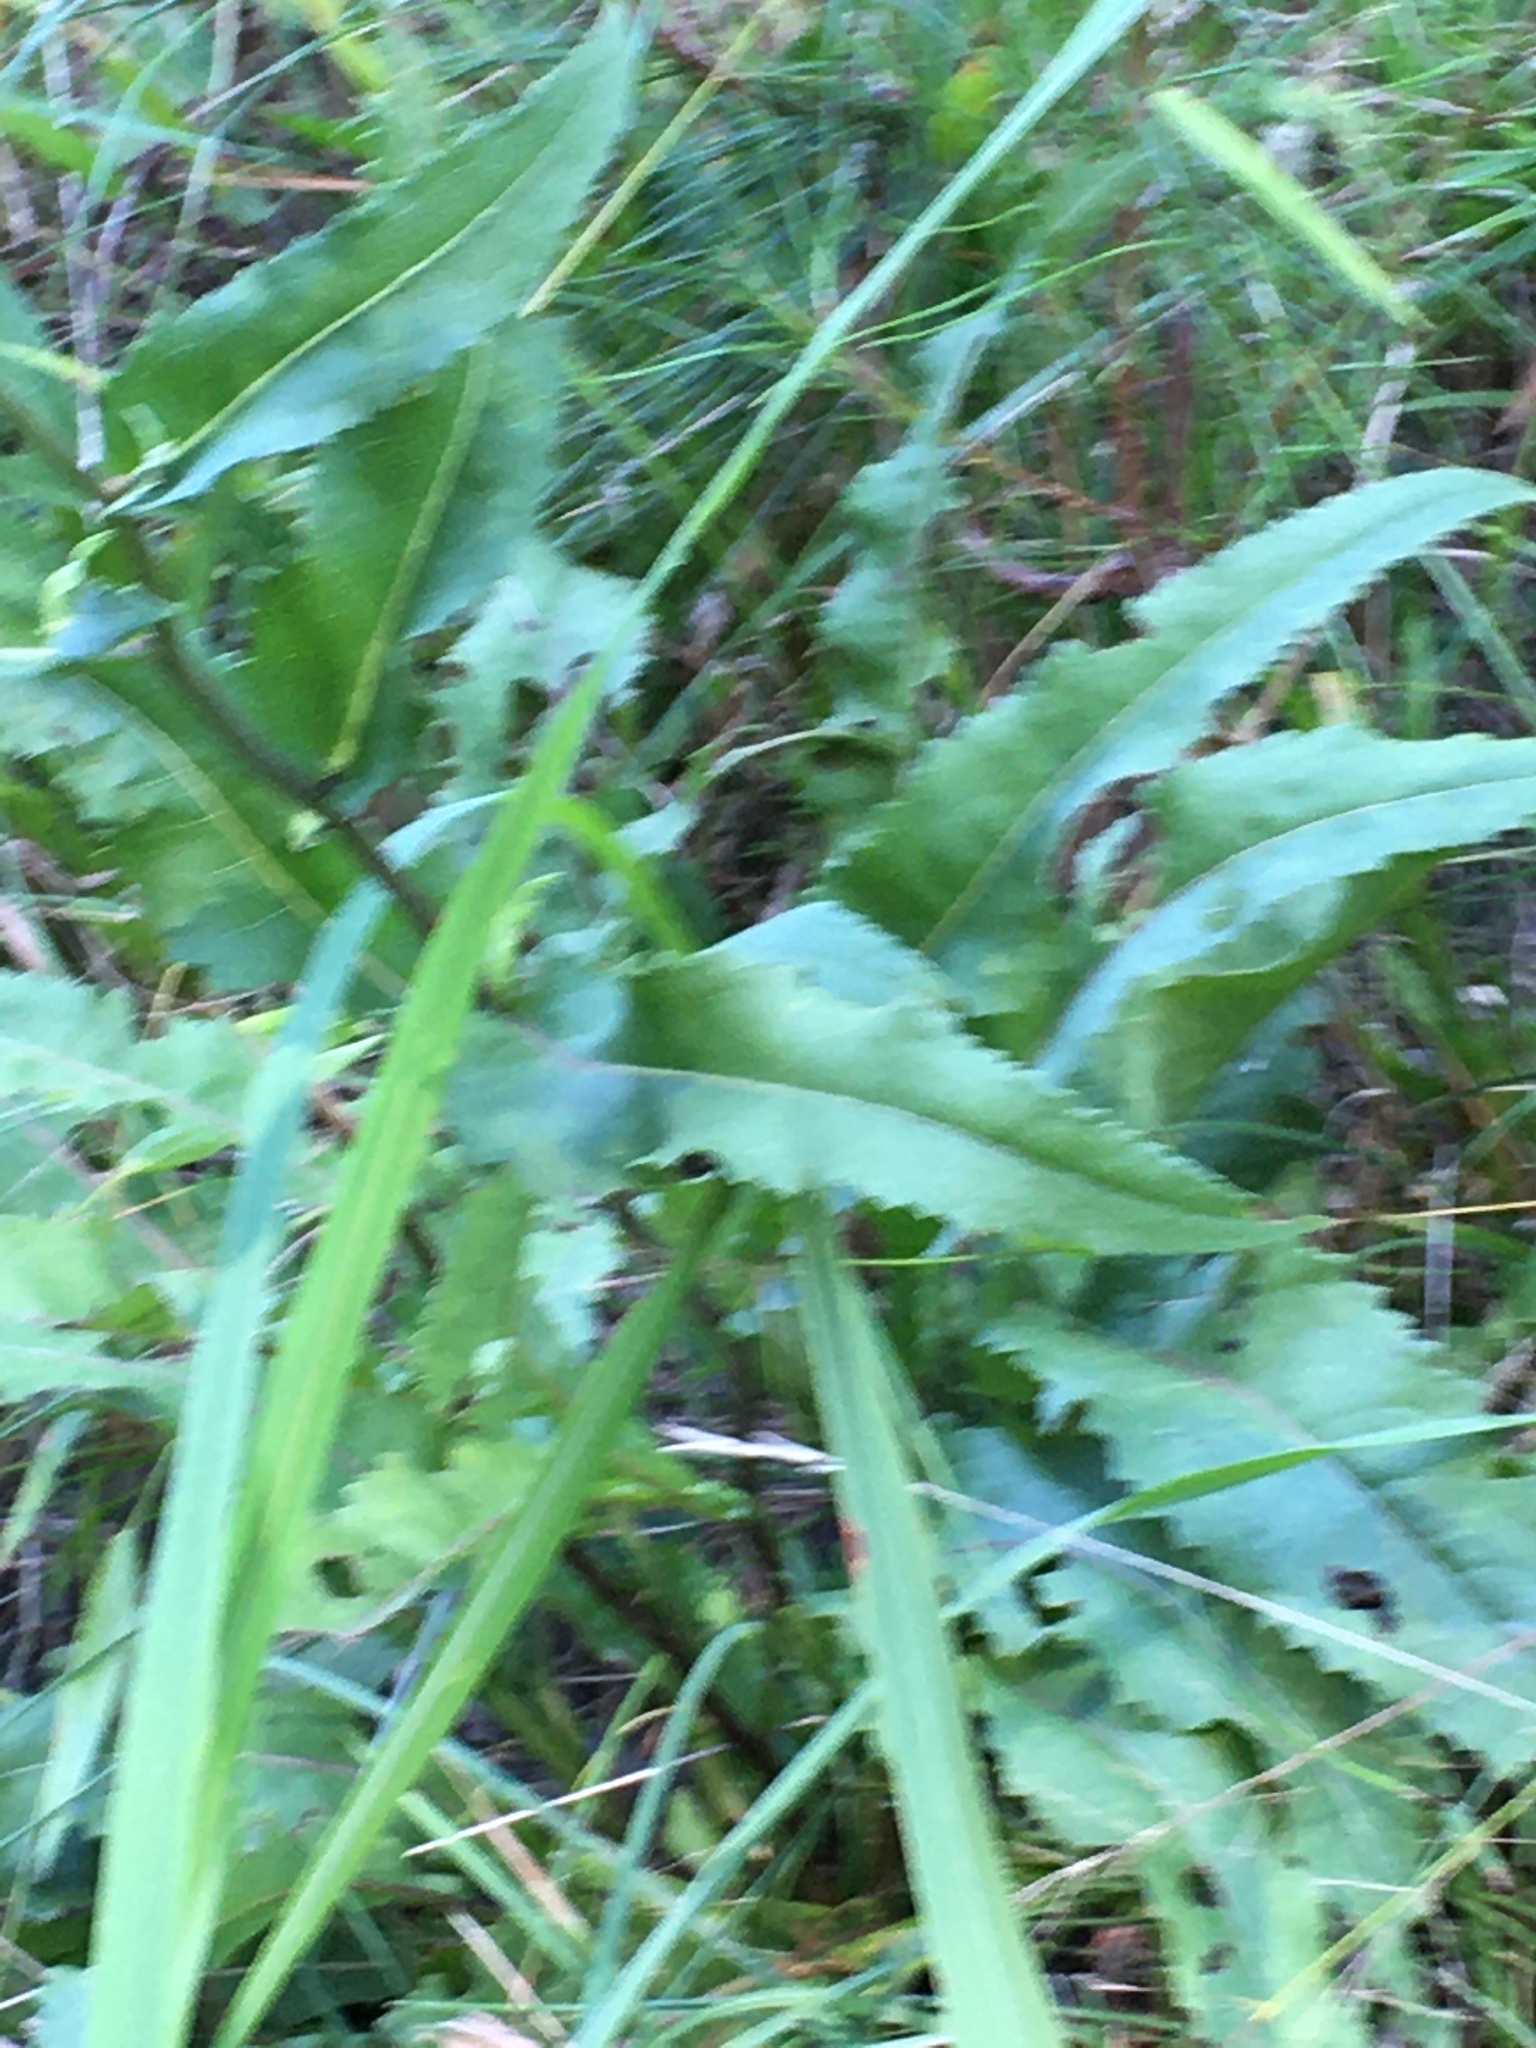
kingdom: Plantae
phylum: Tracheophyta
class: Magnoliopsida
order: Asterales
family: Asteraceae
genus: Parthenium
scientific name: Parthenium integrifolium
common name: American feverfew
